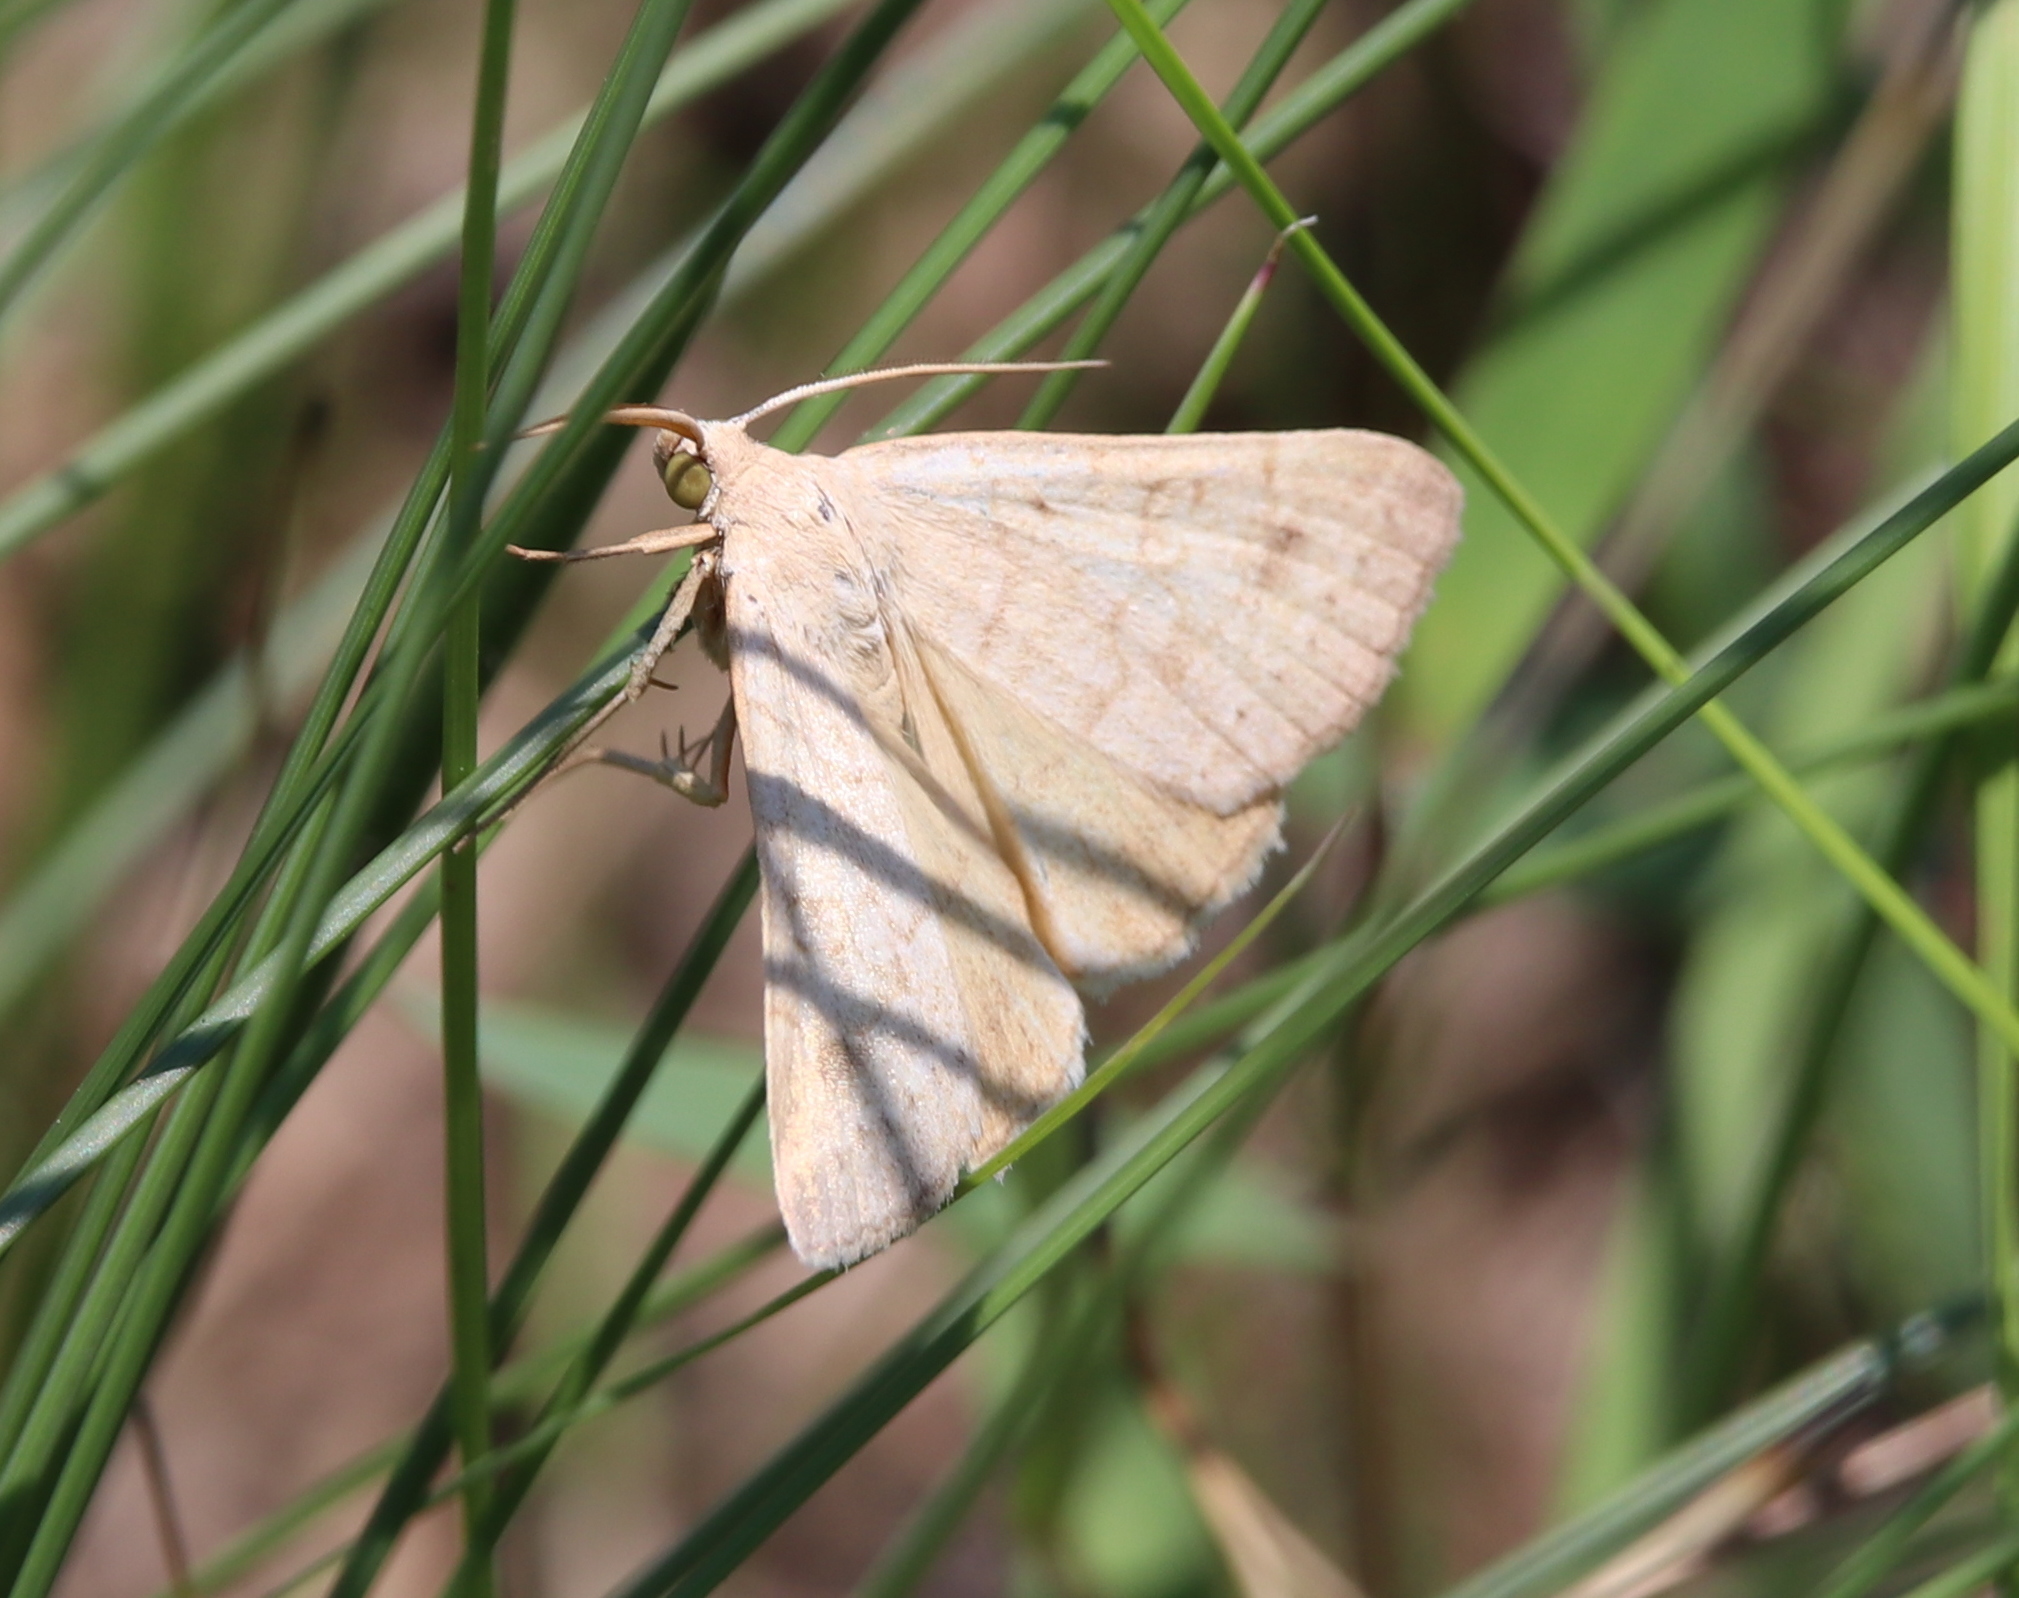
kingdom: Animalia
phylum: Arthropoda
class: Insecta
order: Lepidoptera
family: Erebidae
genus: Caenurgia
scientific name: Caenurgia chloropha
